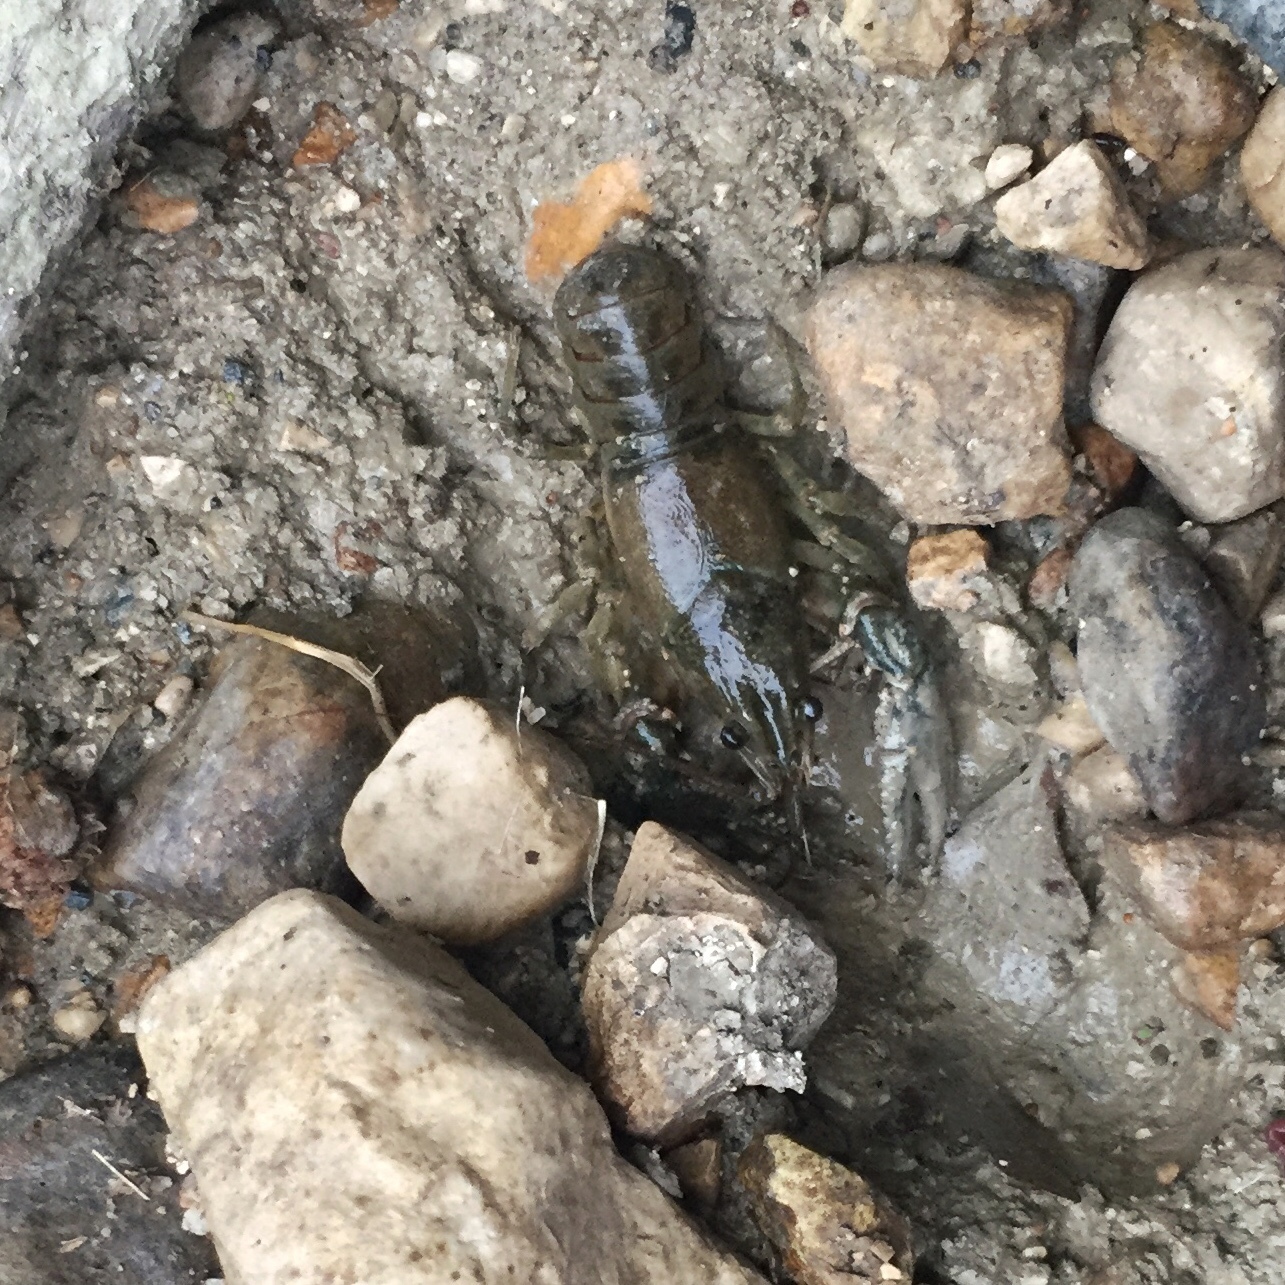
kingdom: Animalia
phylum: Arthropoda
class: Malacostraca
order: Decapoda
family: Cambaridae
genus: Faxonius
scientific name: Faxonius virilis
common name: Virile crayfish
